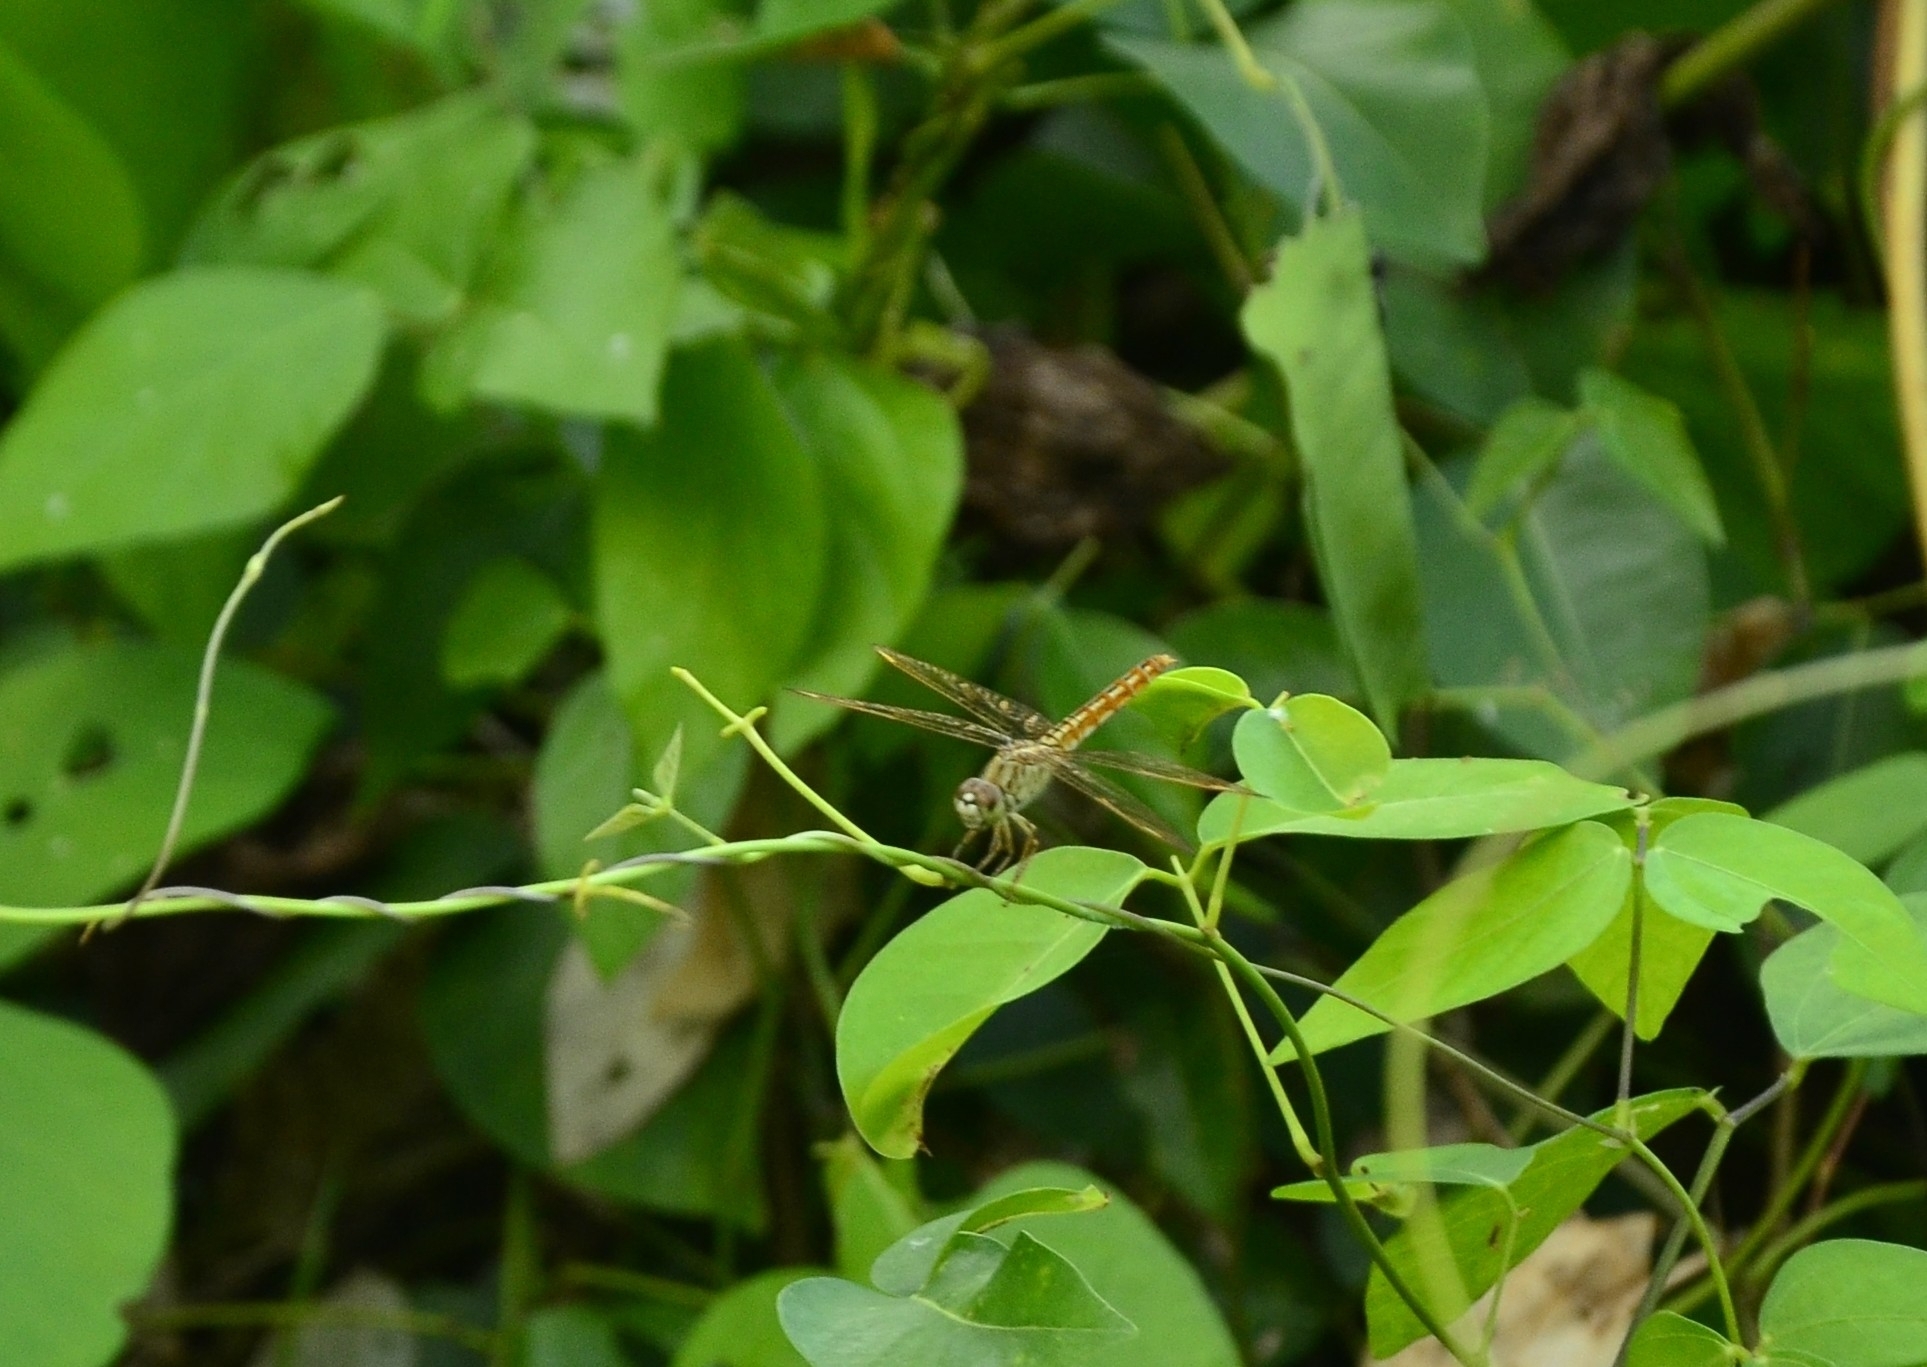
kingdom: Animalia
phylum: Arthropoda
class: Insecta
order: Odonata
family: Libellulidae
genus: Brachythemis
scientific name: Brachythemis contaminata
